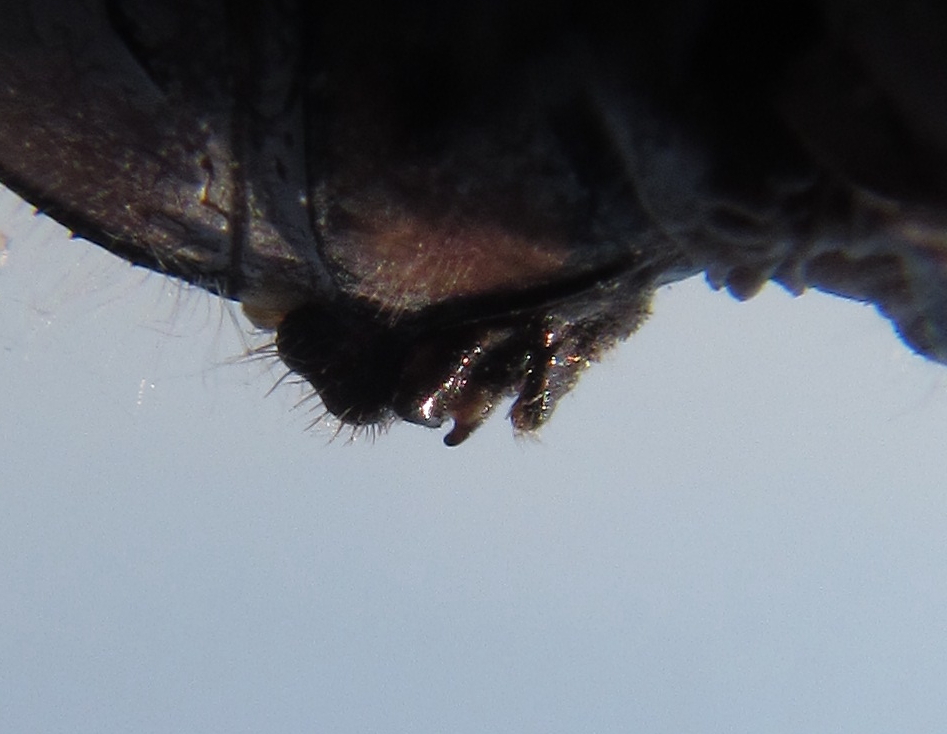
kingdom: Animalia
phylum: Arthropoda
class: Insecta
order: Odonata
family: Libellulidae
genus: Orthetrum
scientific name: Orthetrum robustum
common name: Robust skimmer
